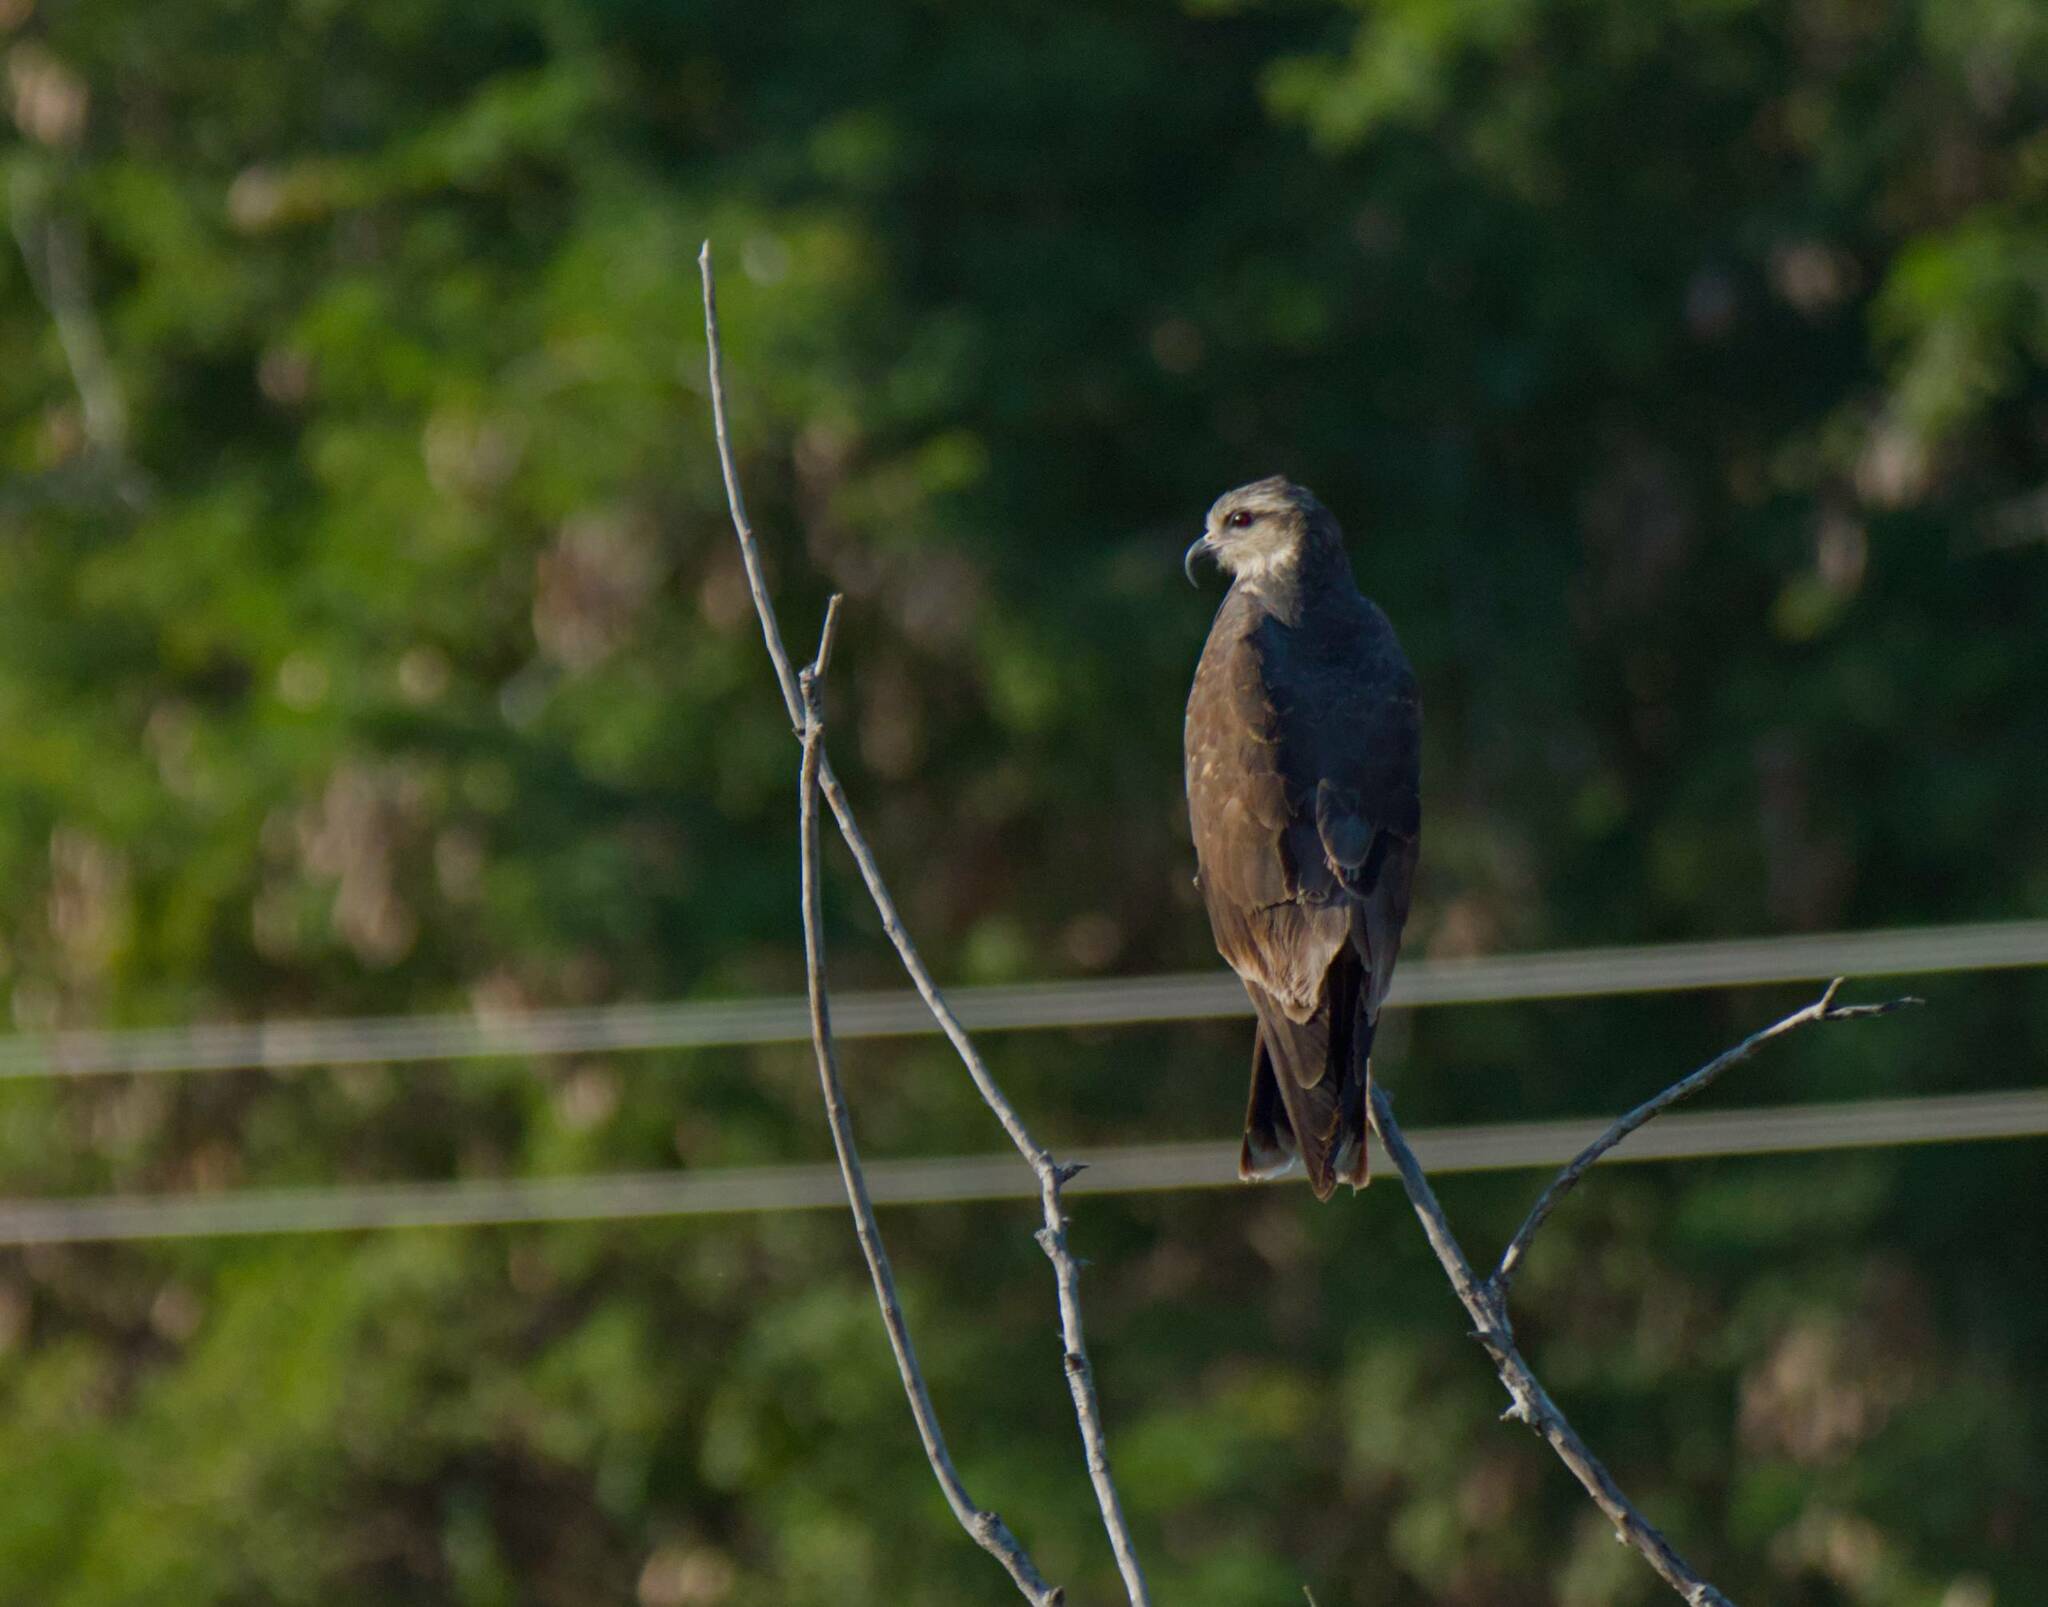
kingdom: Animalia
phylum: Chordata
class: Aves
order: Accipitriformes
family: Accipitridae
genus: Rostrhamus
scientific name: Rostrhamus sociabilis
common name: Snail kite
